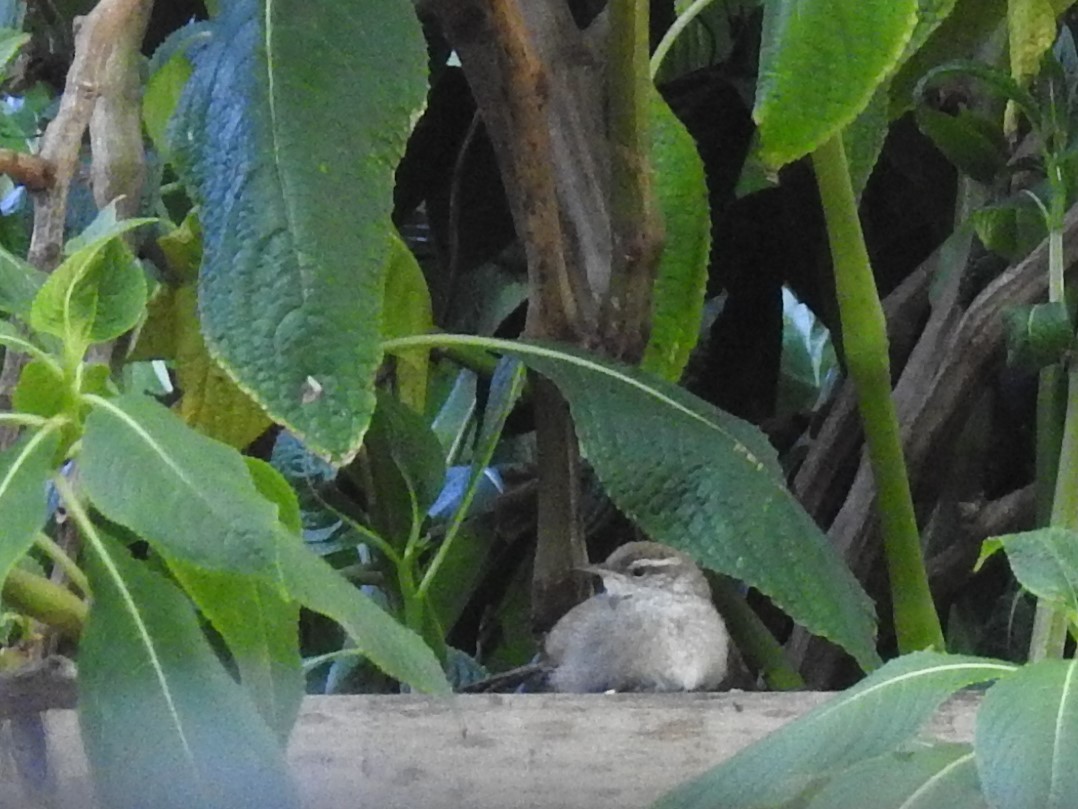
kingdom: Animalia
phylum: Chordata
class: Aves
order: Passeriformes
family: Troglodytidae
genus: Thryomanes
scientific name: Thryomanes bewickii
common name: Bewick's wren
